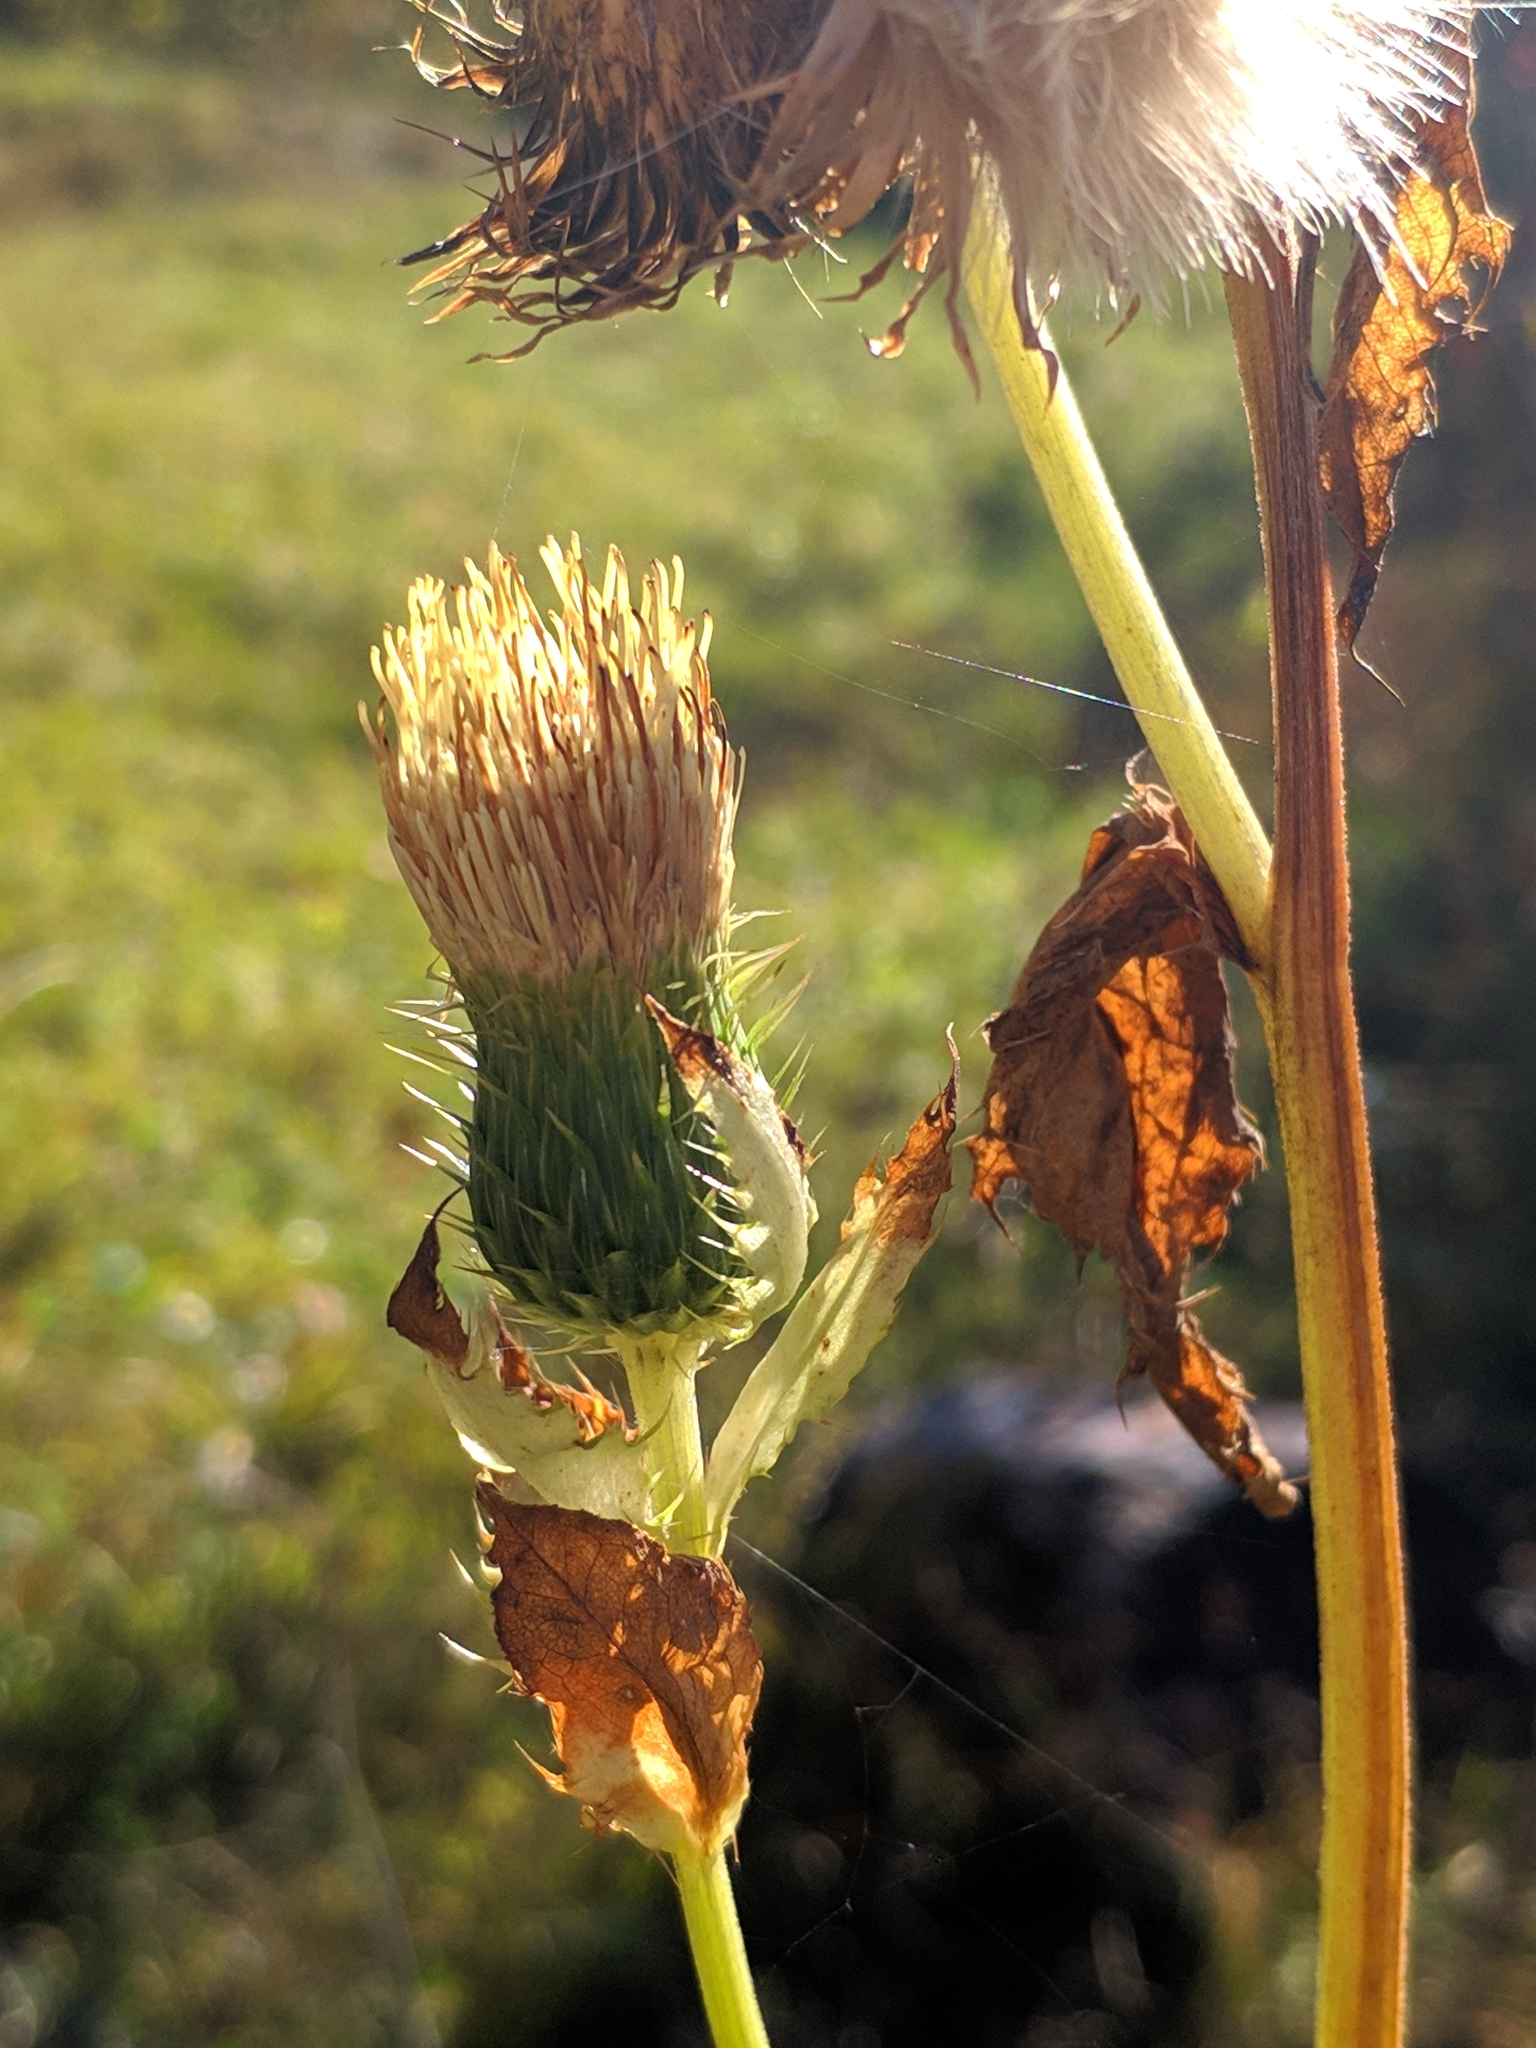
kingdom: Plantae
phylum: Tracheophyta
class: Magnoliopsida
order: Asterales
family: Asteraceae
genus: Cirsium
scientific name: Cirsium erisithales
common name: Yellow thistle
